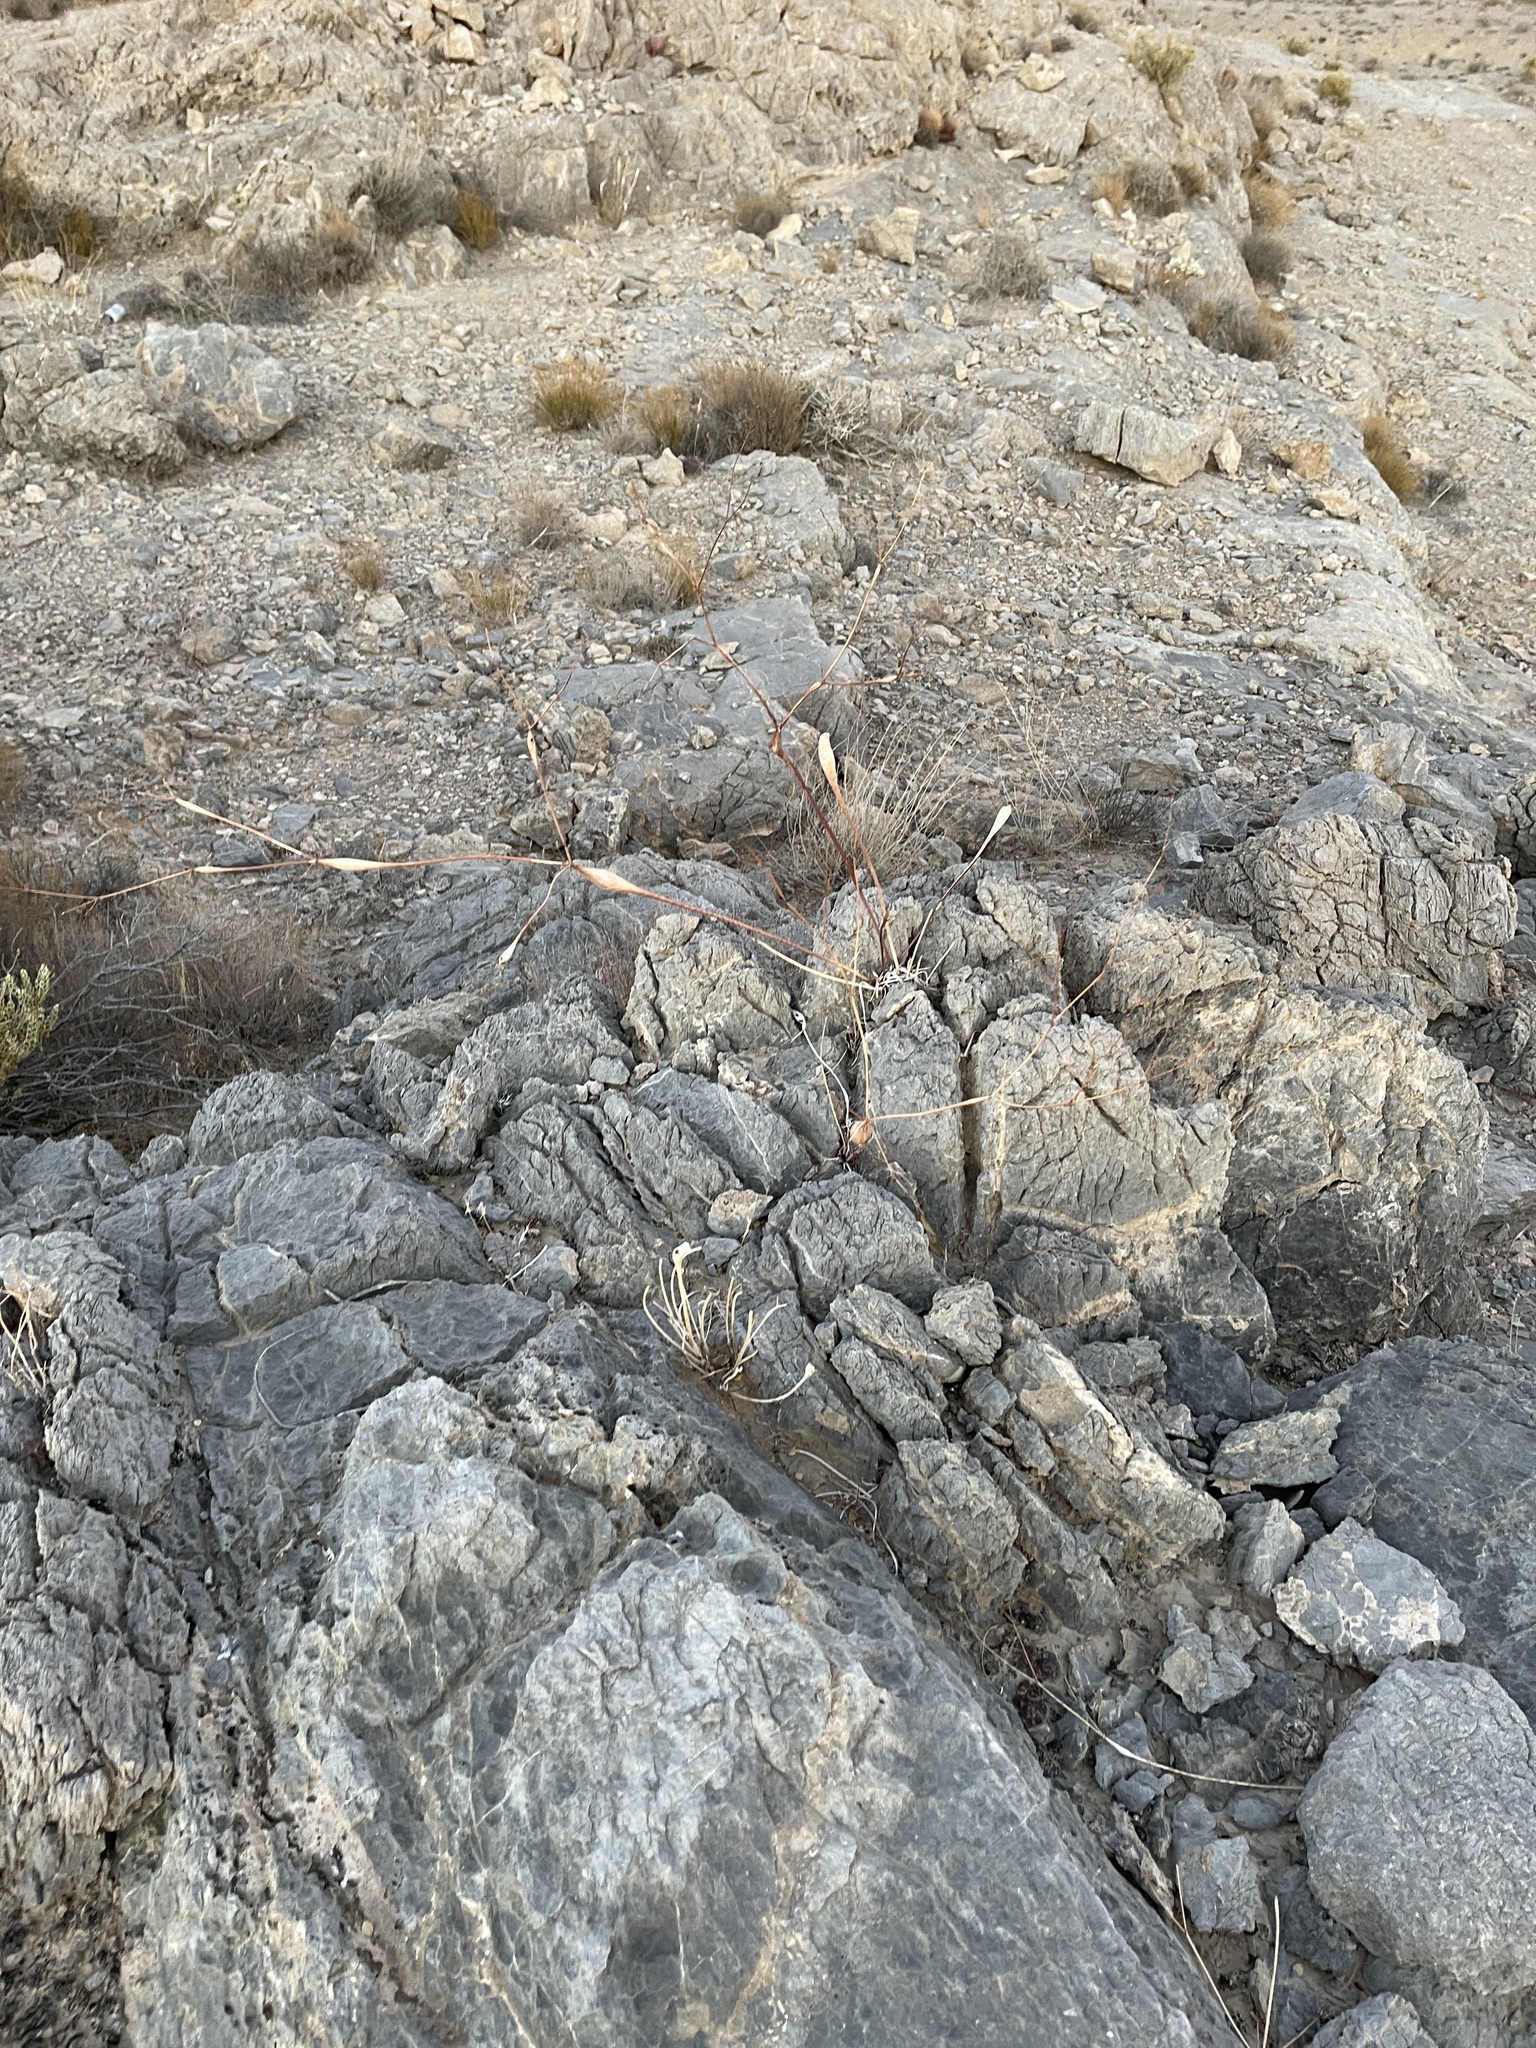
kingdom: Plantae
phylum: Tracheophyta
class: Magnoliopsida
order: Caryophyllales
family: Polygonaceae
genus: Eriogonum
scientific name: Eriogonum inflatum
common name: Desert trumpet
